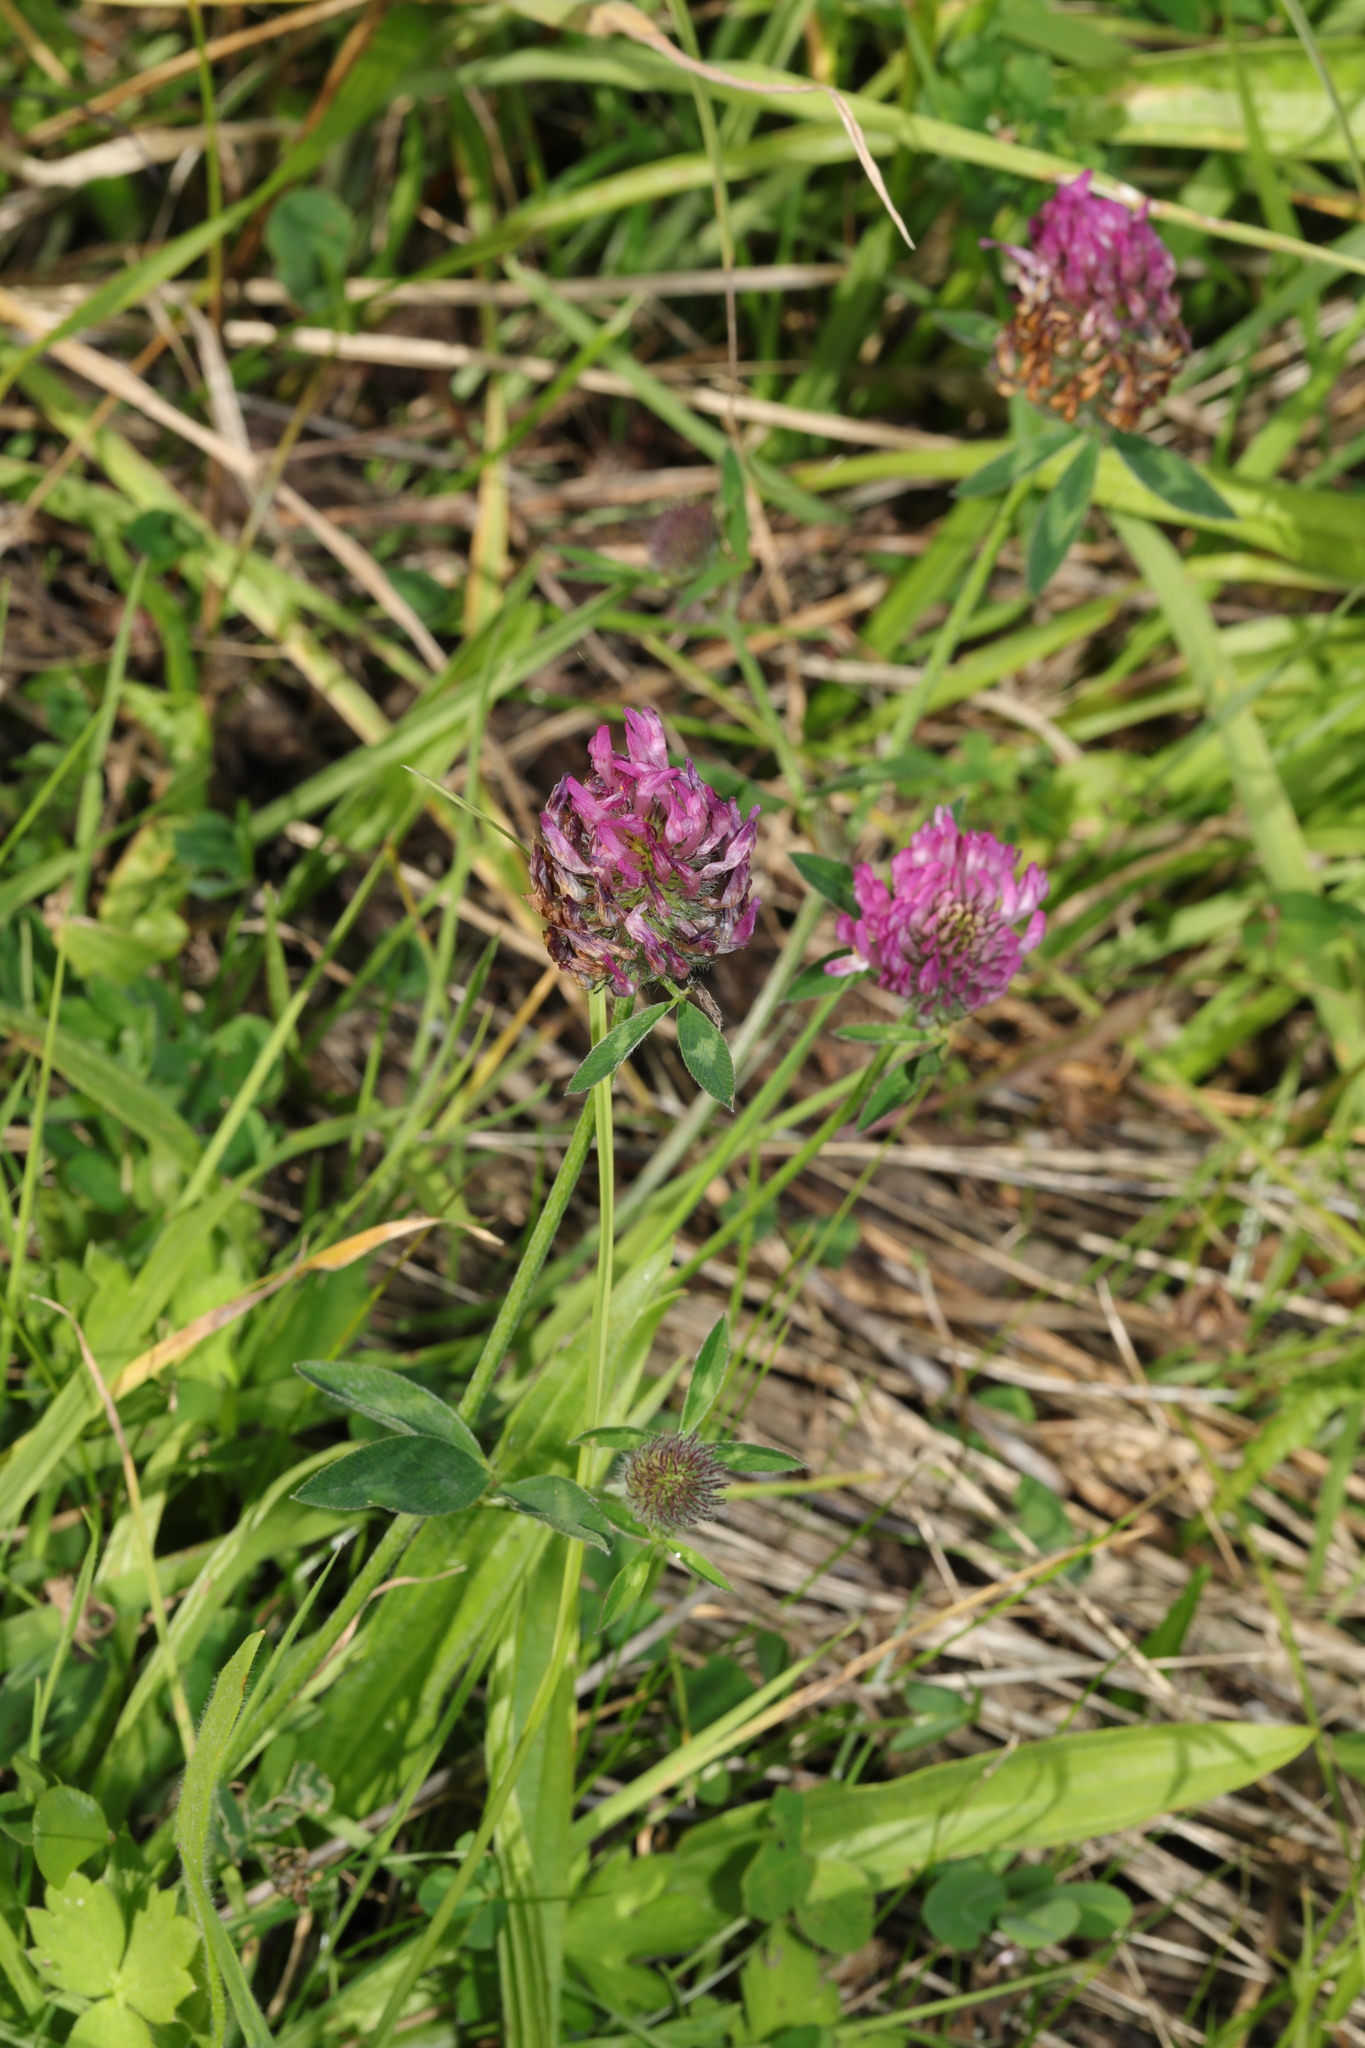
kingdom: Plantae
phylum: Tracheophyta
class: Magnoliopsida
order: Fabales
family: Fabaceae
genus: Trifolium
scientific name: Trifolium pratense
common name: Red clover
